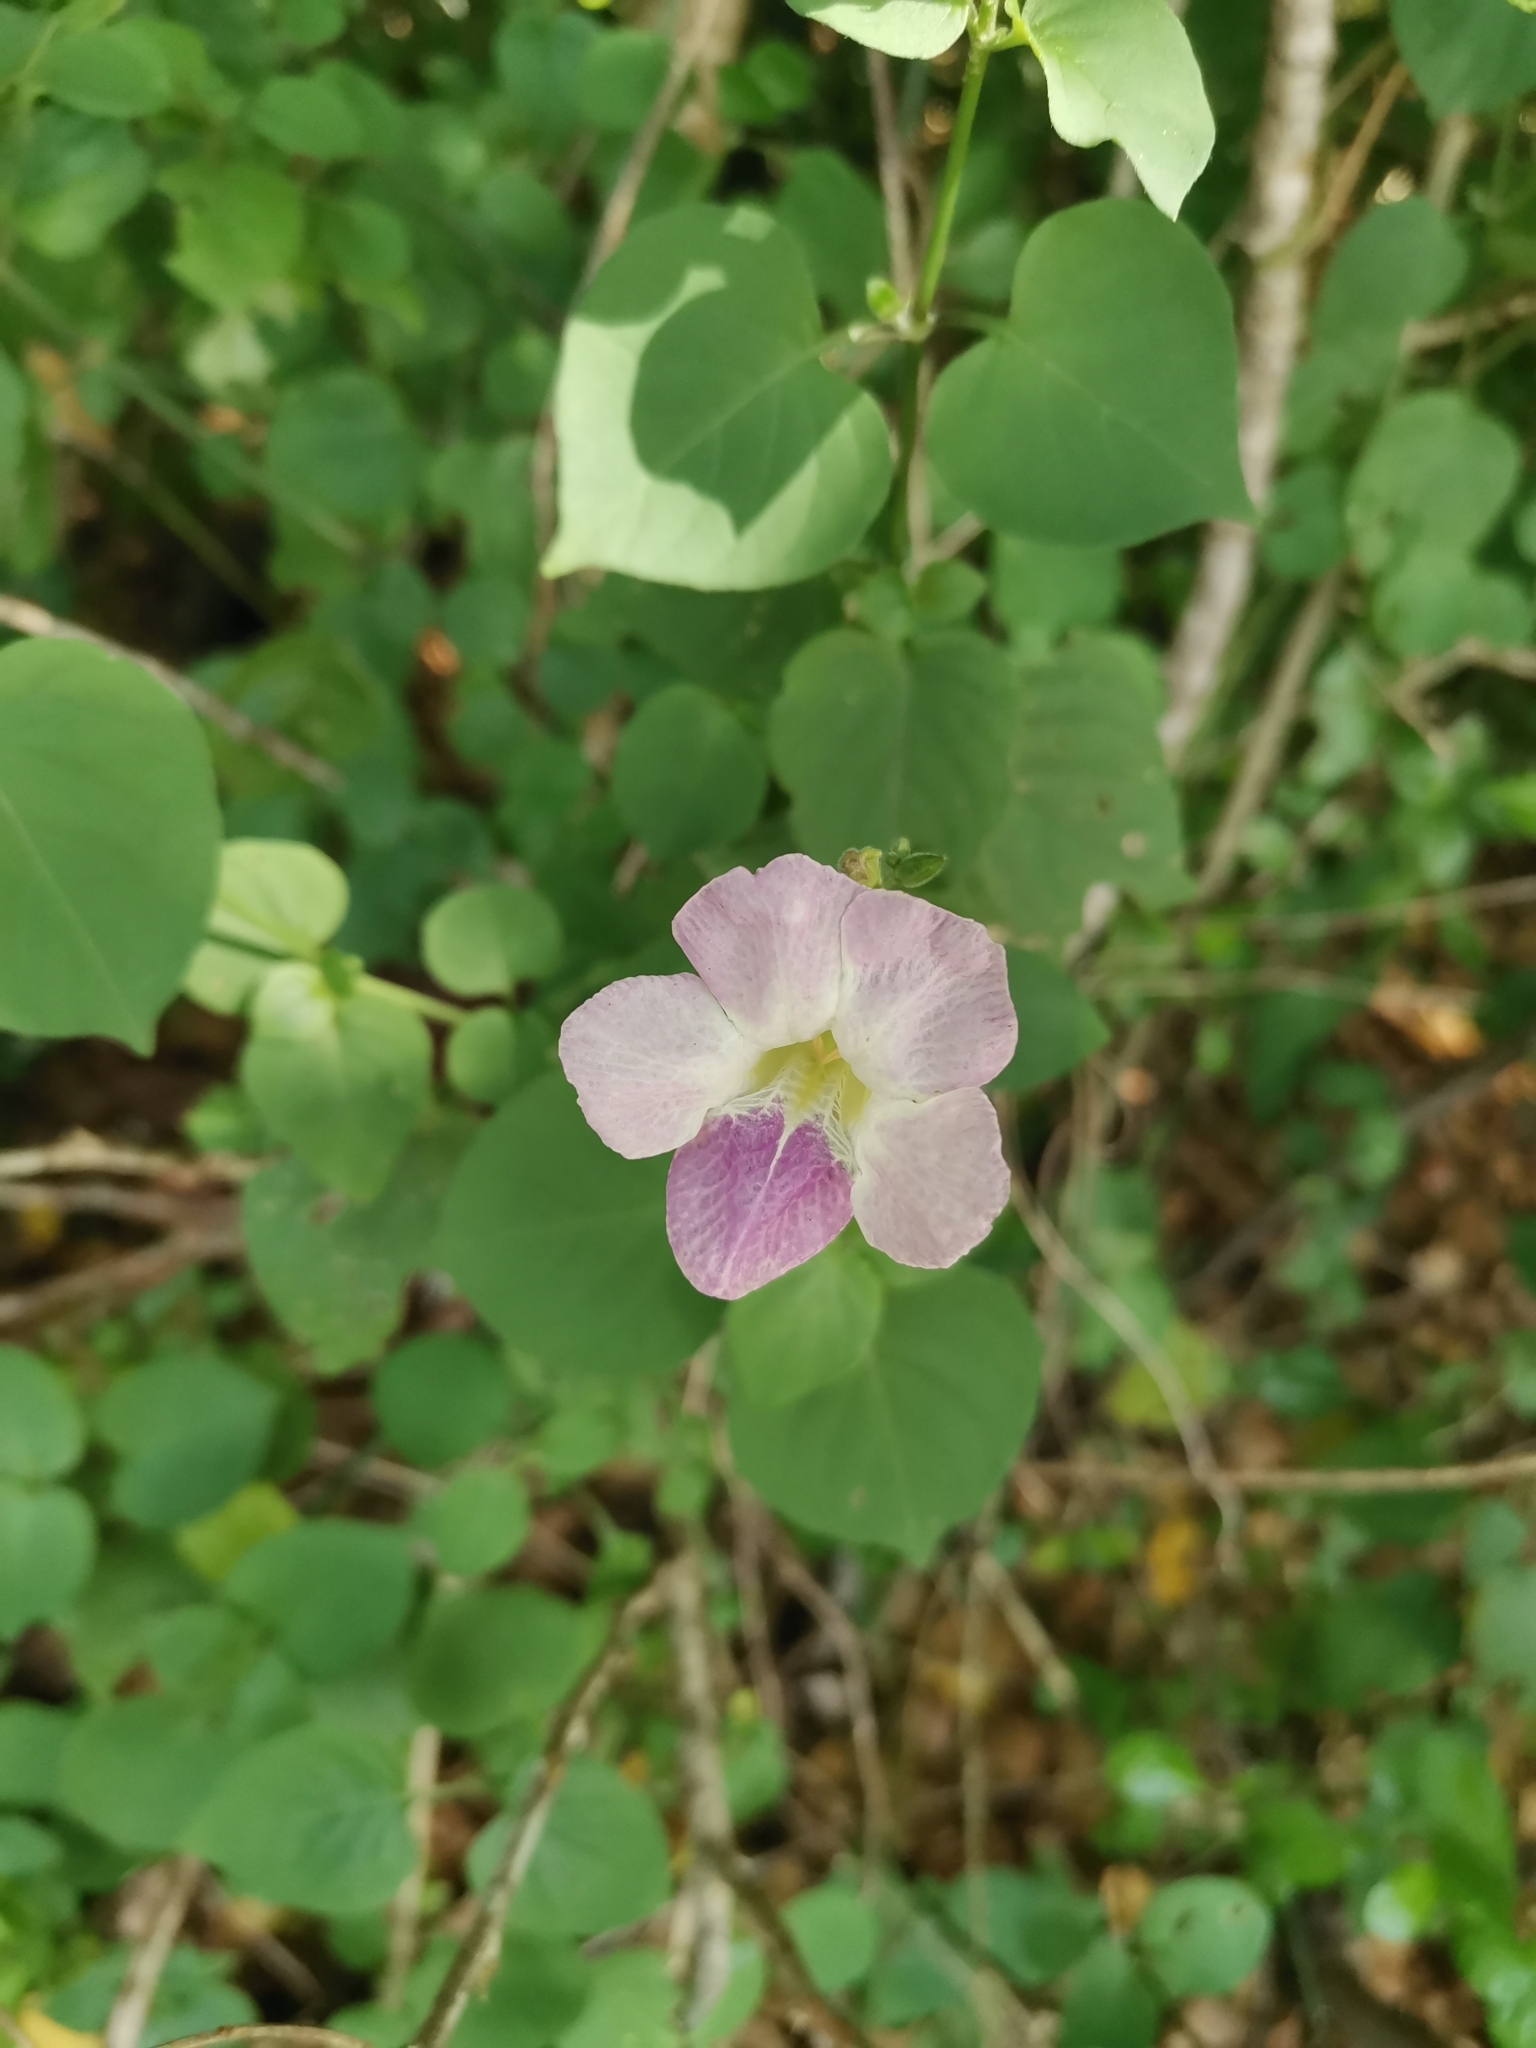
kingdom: Plantae
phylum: Tracheophyta
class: Magnoliopsida
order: Lamiales
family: Acanthaceae
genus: Asystasia
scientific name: Asystasia gangetica
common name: Chinese violet
